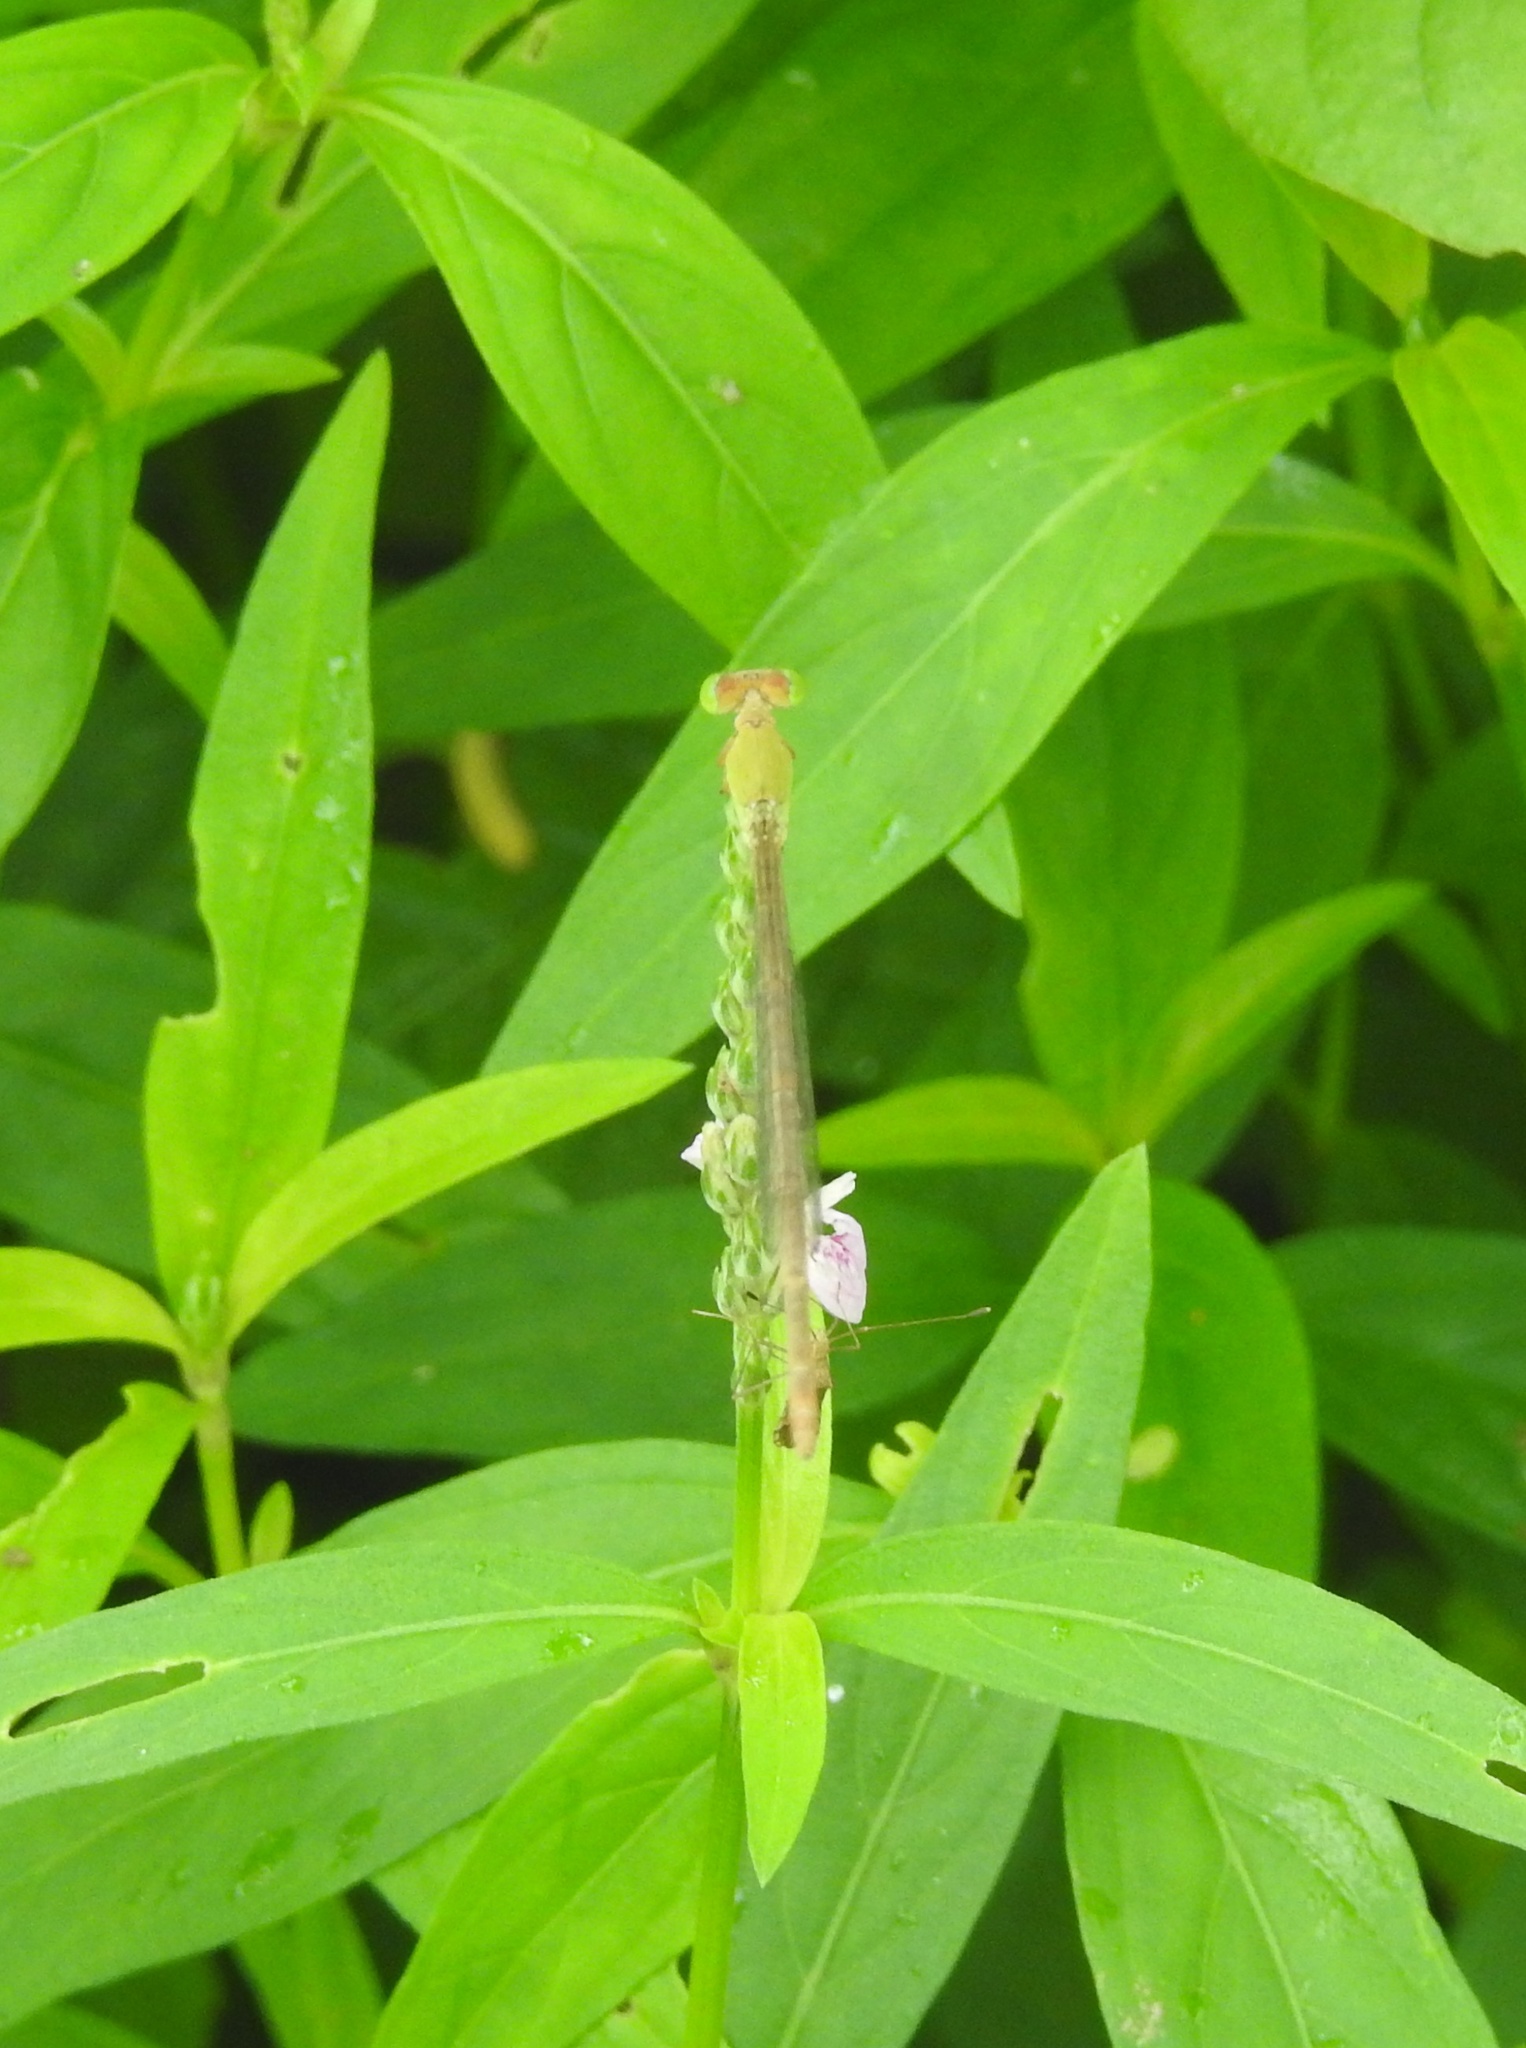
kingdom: Animalia
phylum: Arthropoda
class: Insecta
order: Odonata
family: Coenagrionidae
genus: Ceriagrion
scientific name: Ceriagrion coromandelianum
